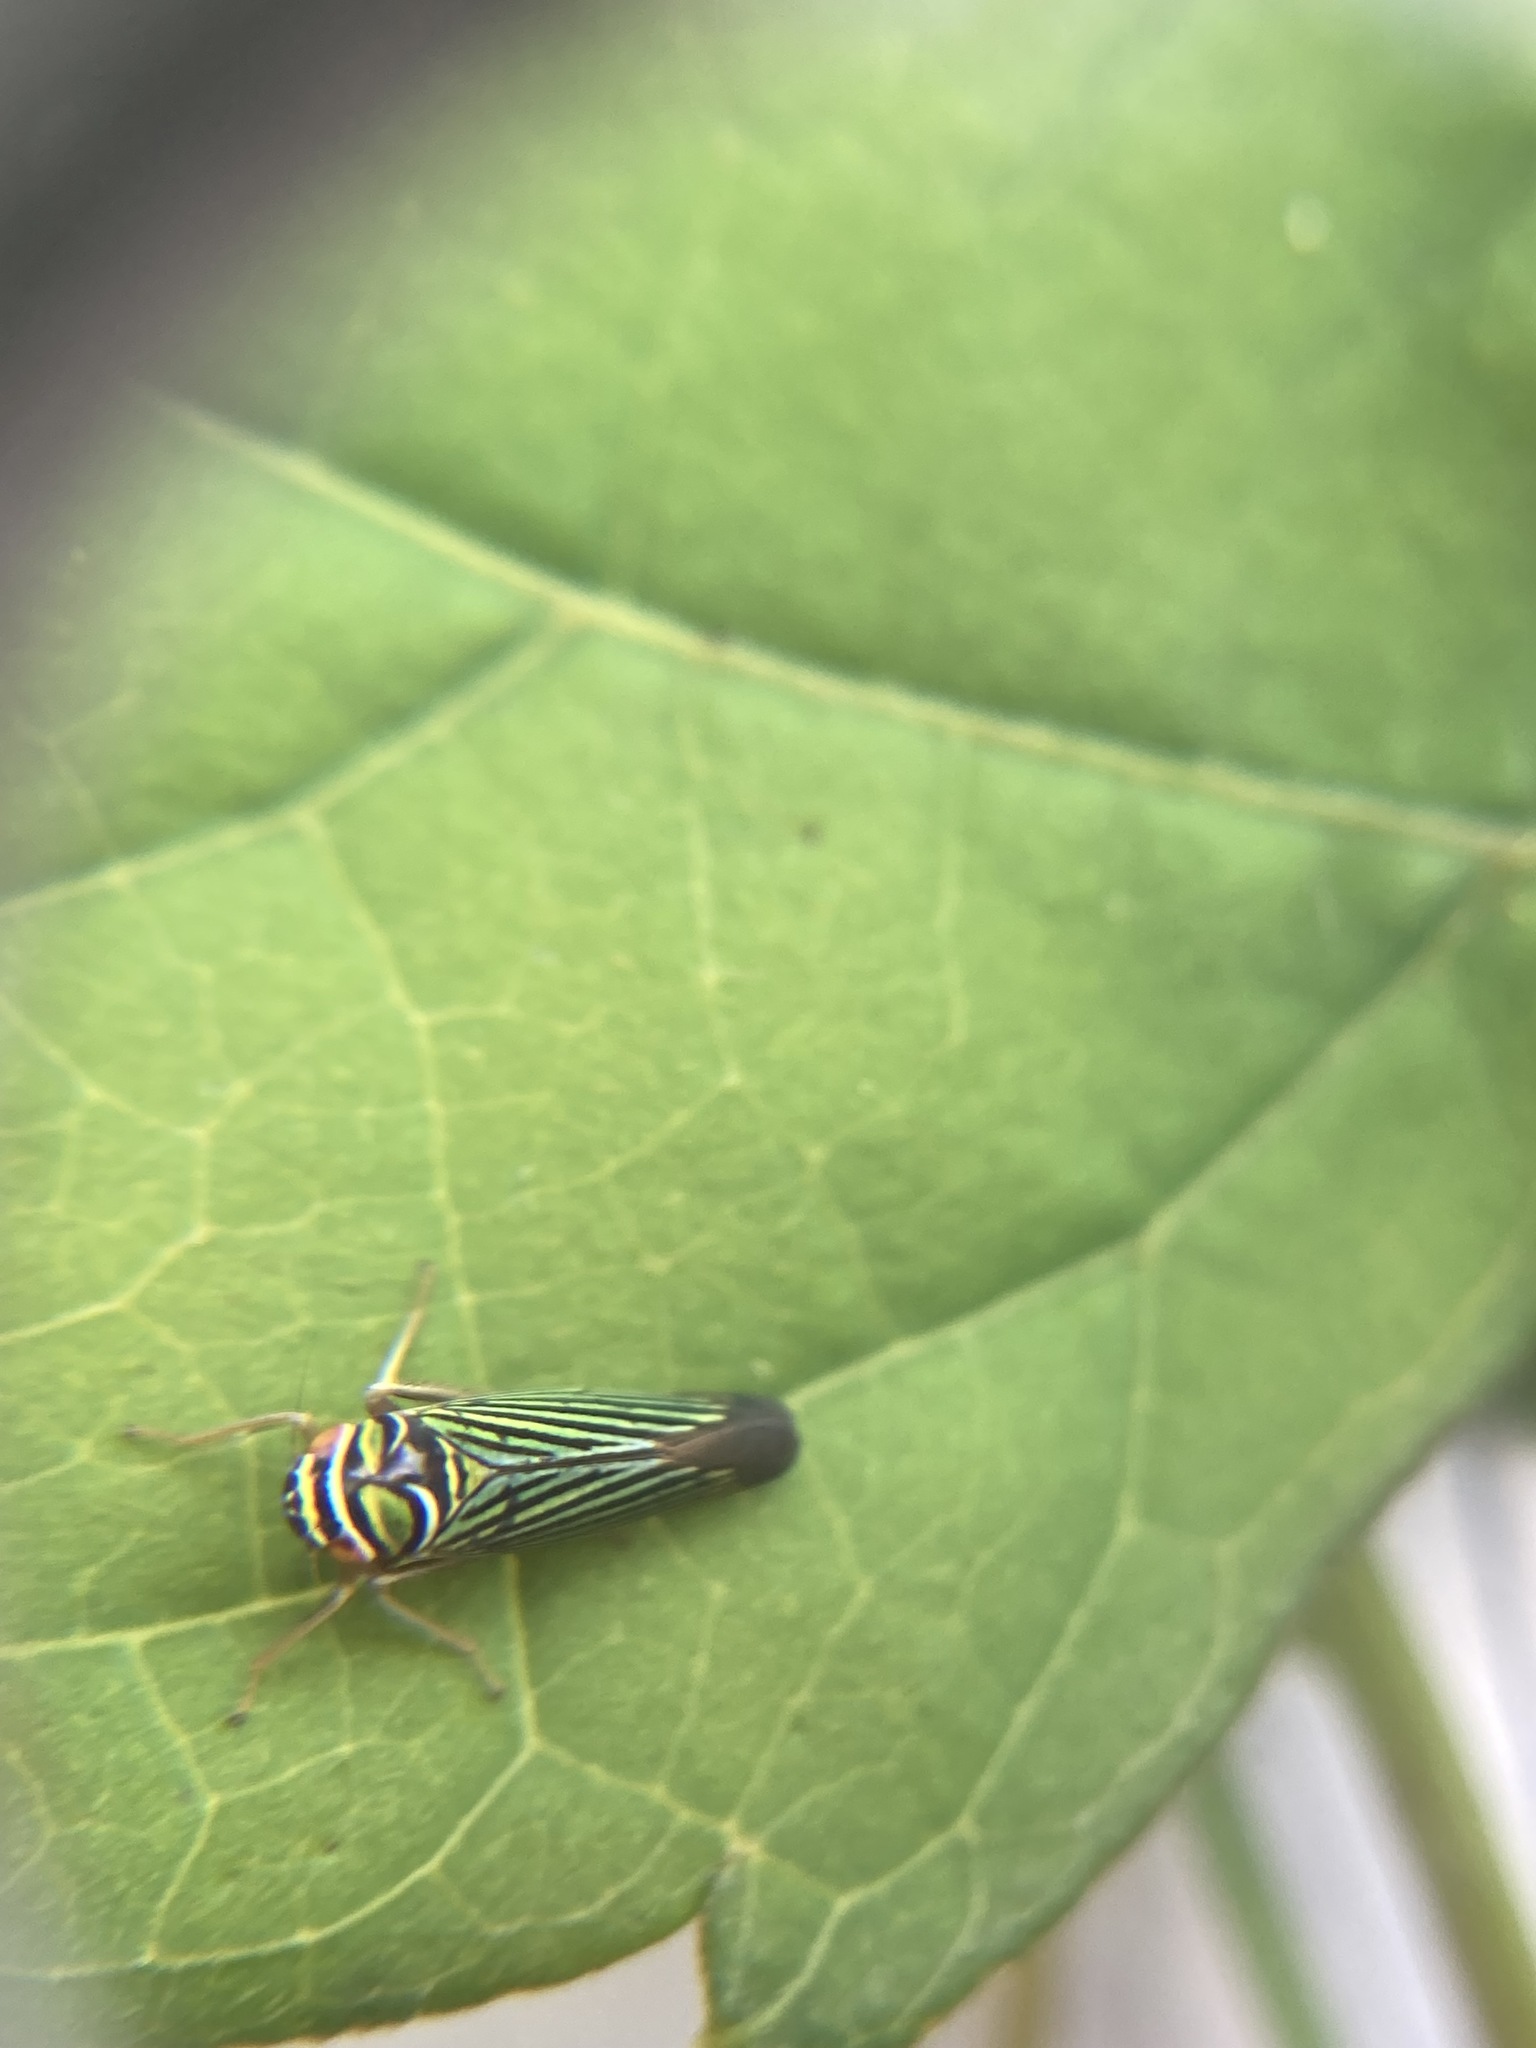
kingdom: Animalia
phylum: Arthropoda
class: Insecta
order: Hemiptera
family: Cicadellidae
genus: Tylozygus
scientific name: Tylozygus bifidus
